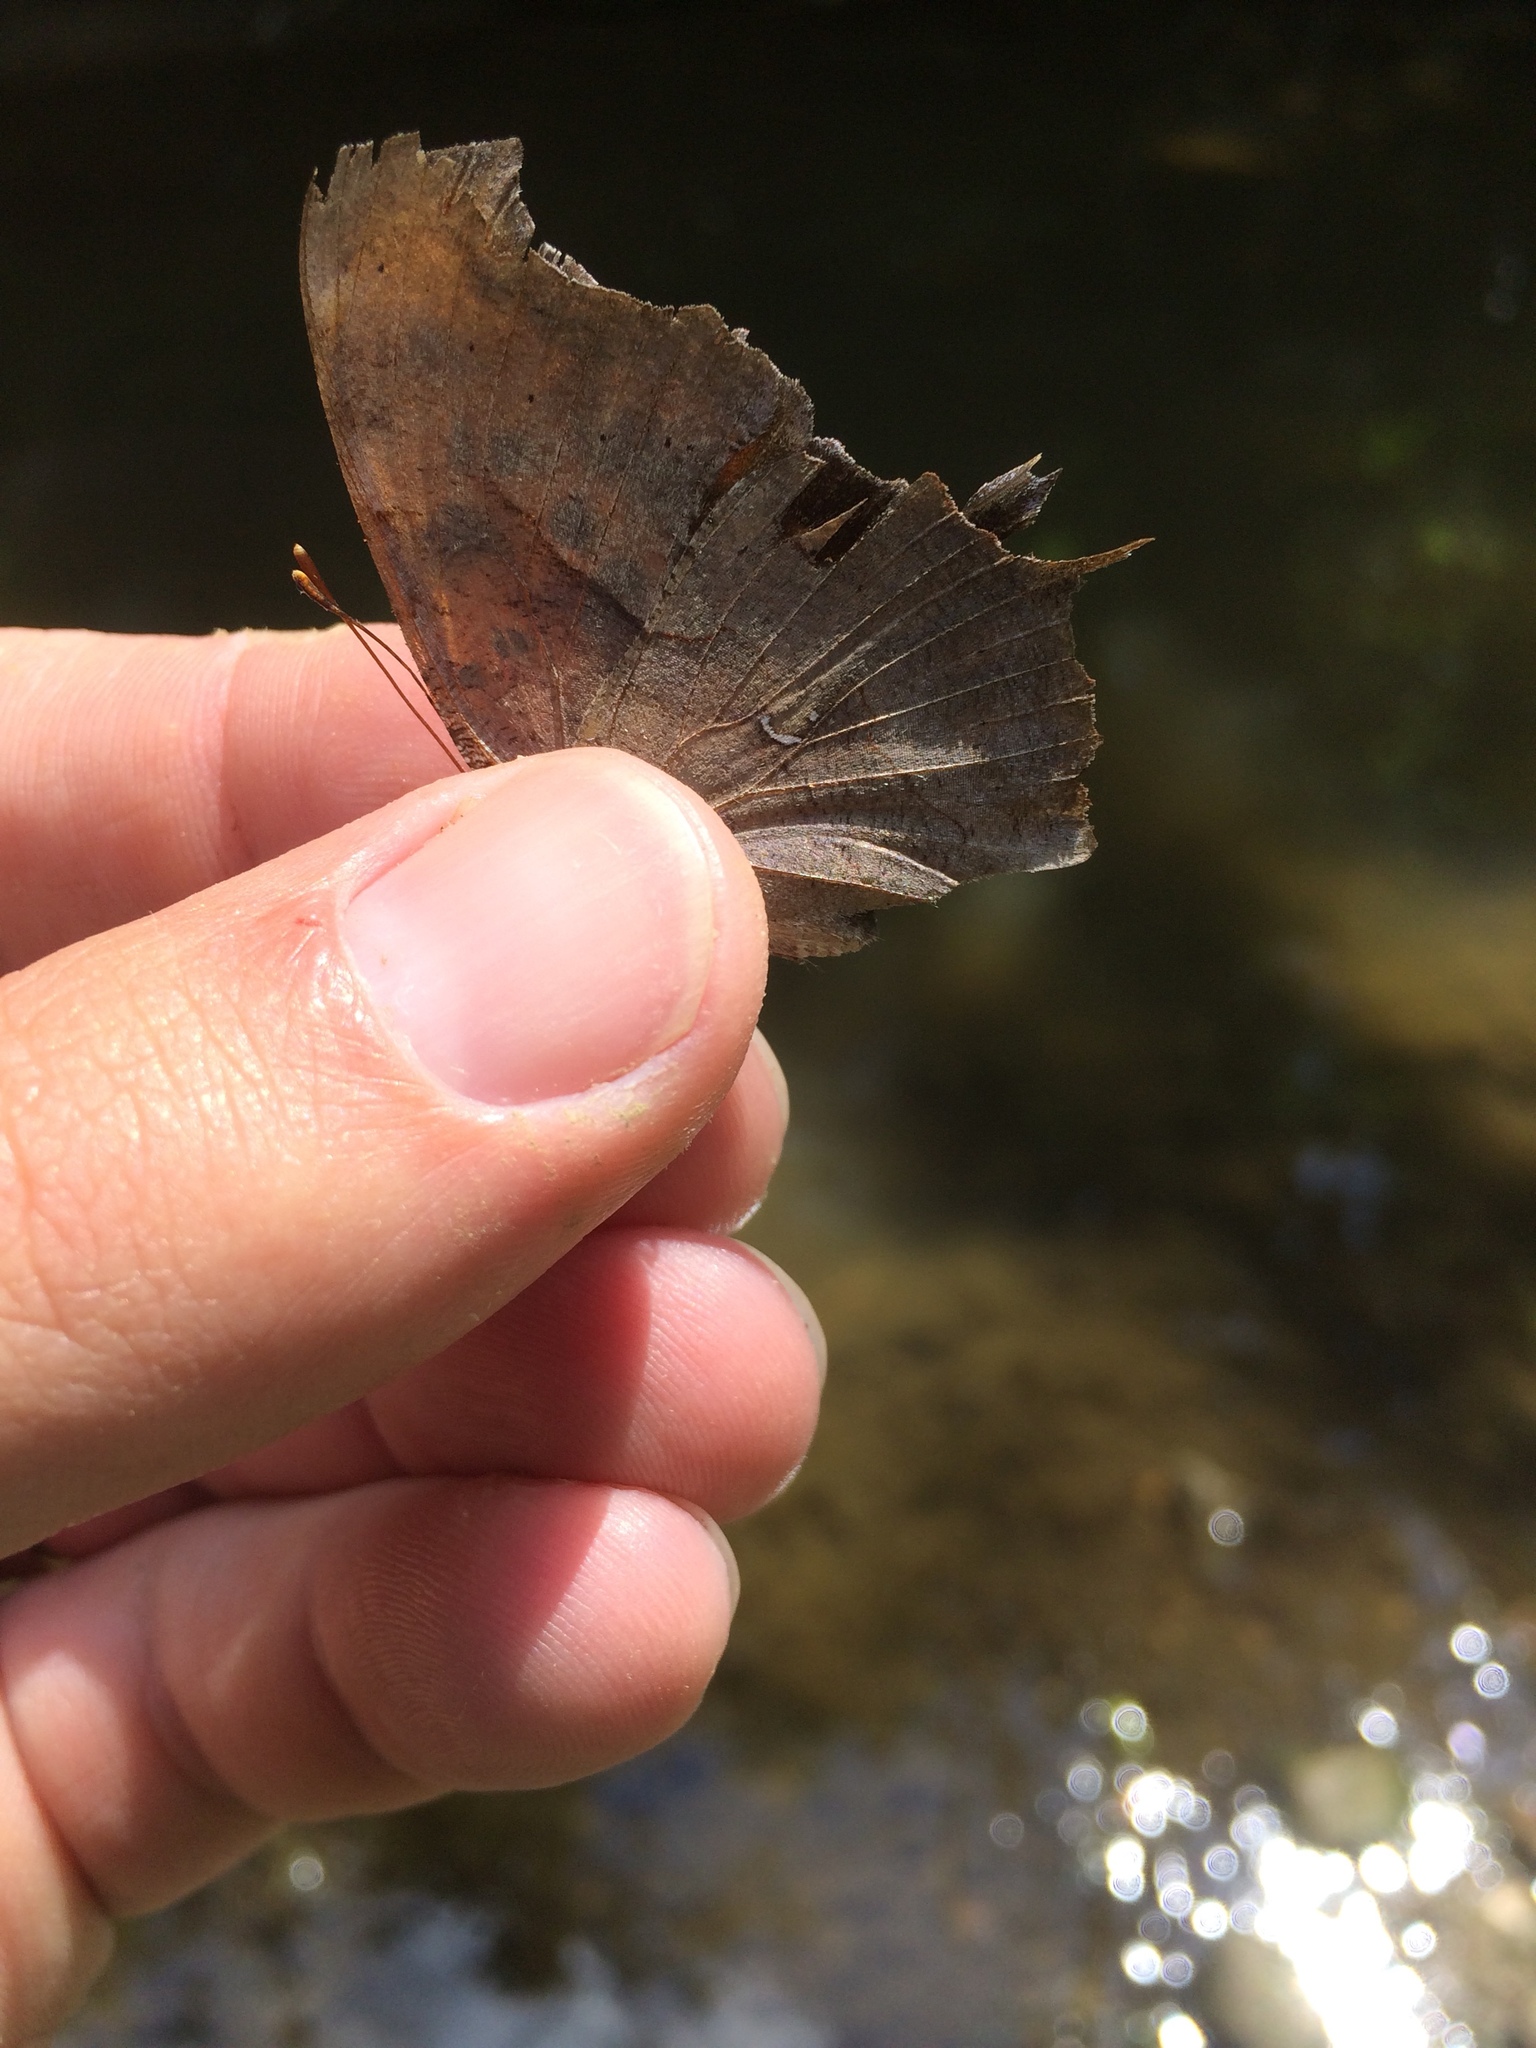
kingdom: Animalia
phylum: Arthropoda
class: Insecta
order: Lepidoptera
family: Nymphalidae
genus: Polygonia
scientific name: Polygonia interrogationis
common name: Question mark
